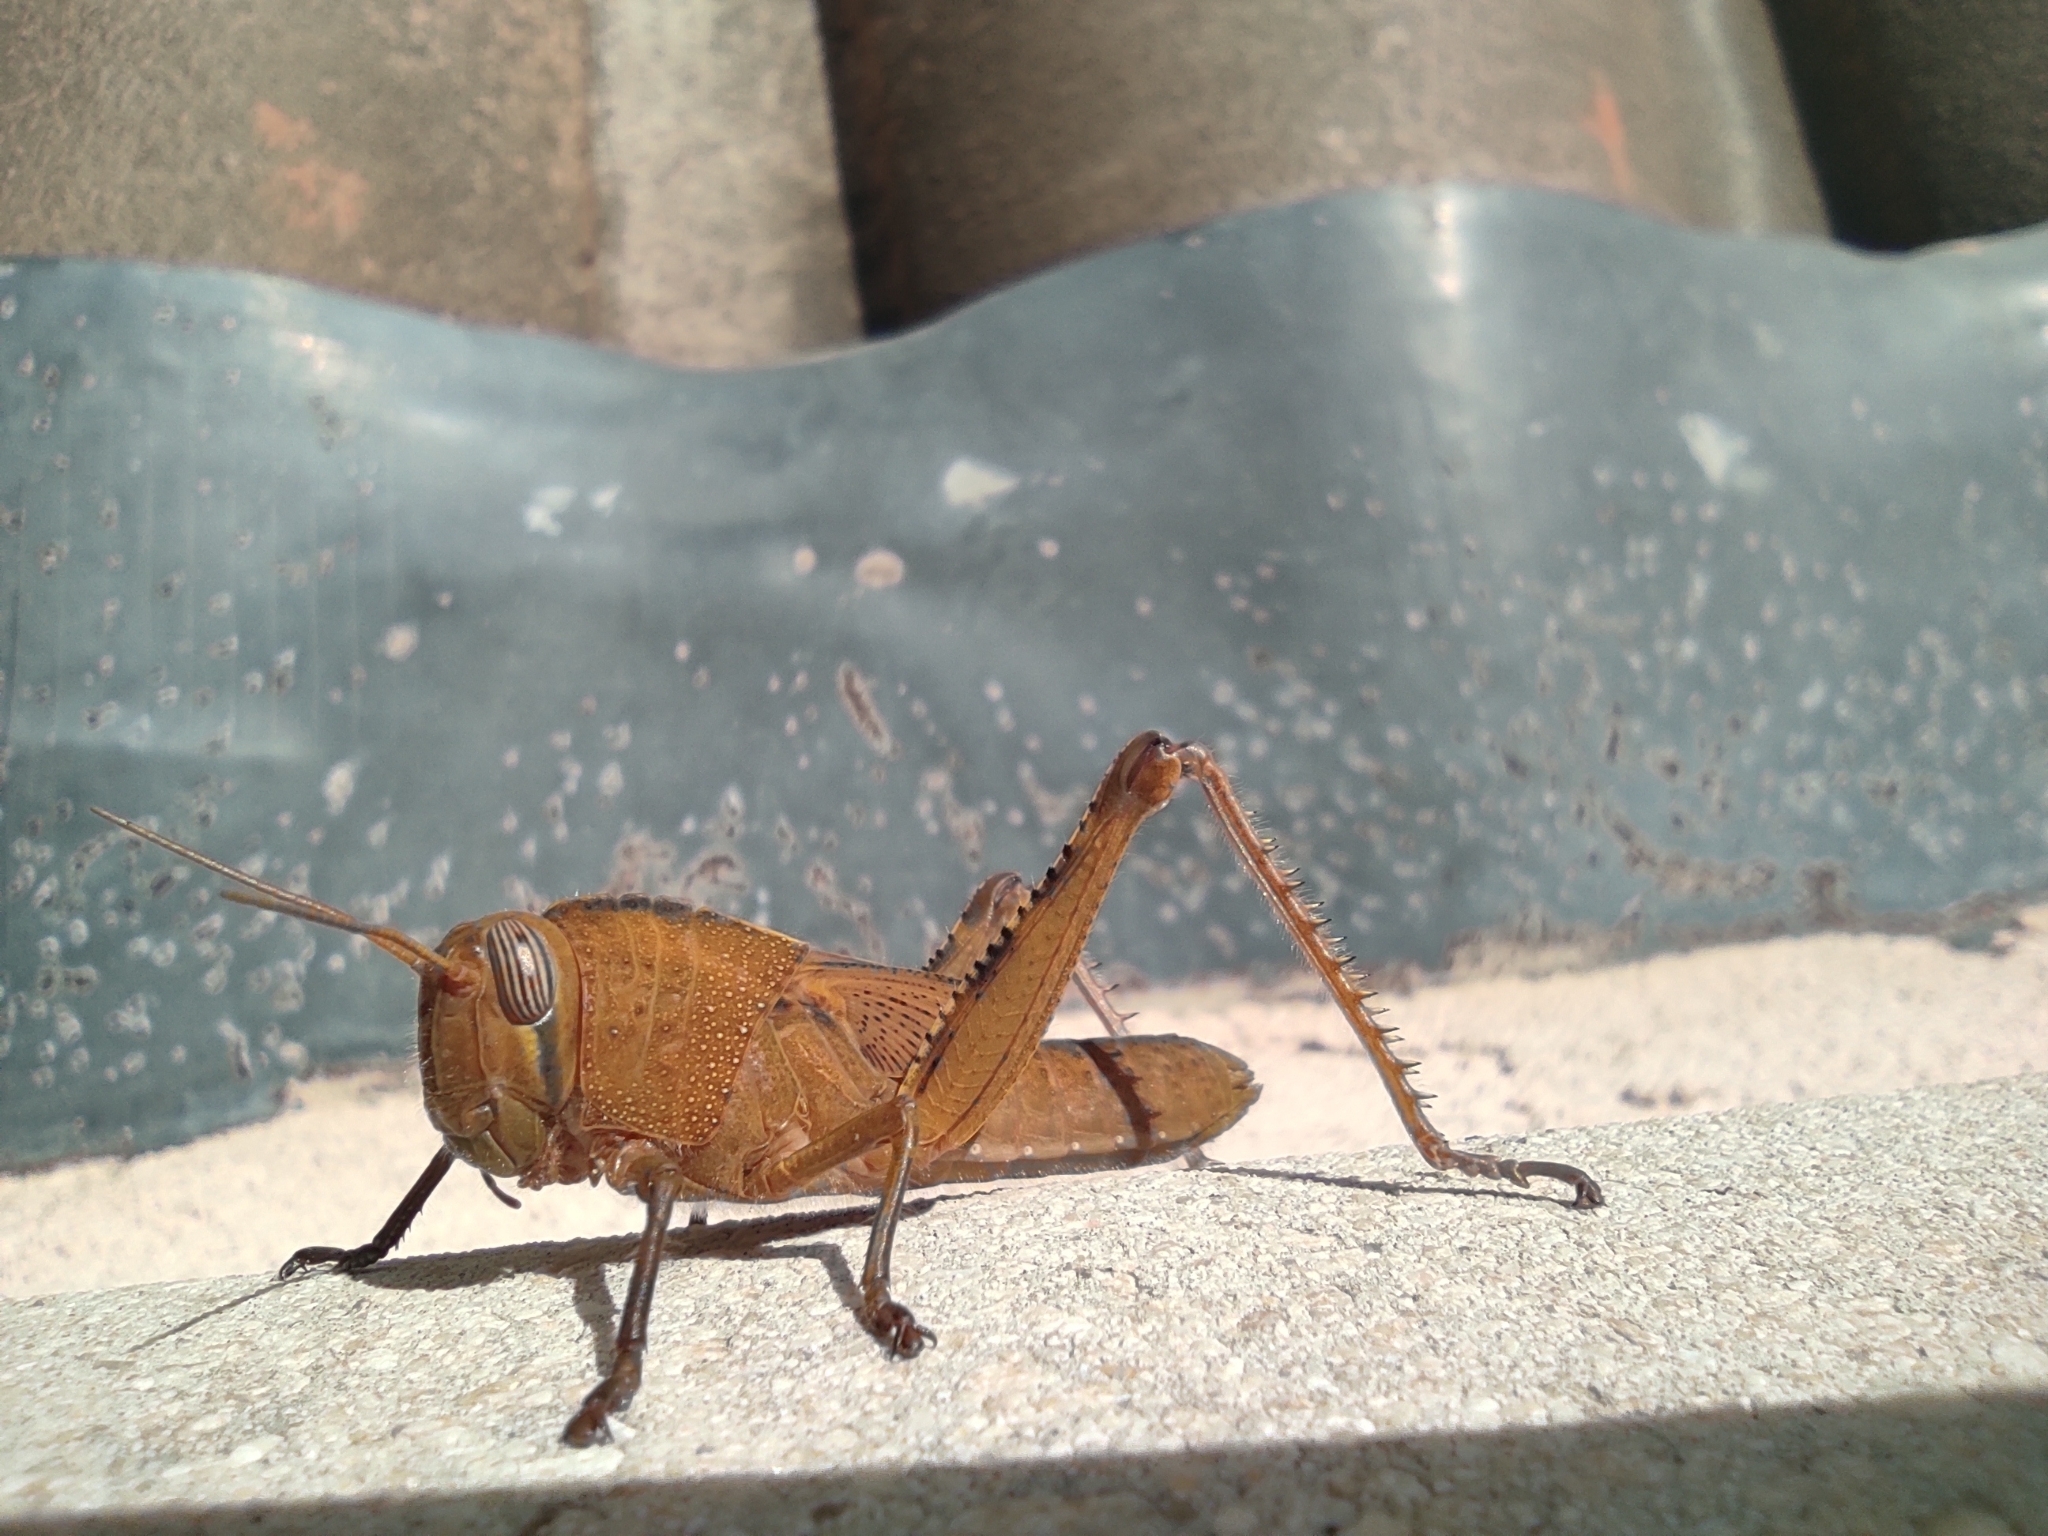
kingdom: Animalia
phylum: Arthropoda
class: Insecta
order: Orthoptera
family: Acrididae
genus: Anacridium
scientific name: Anacridium aegyptium
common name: Egyptian grasshopper
